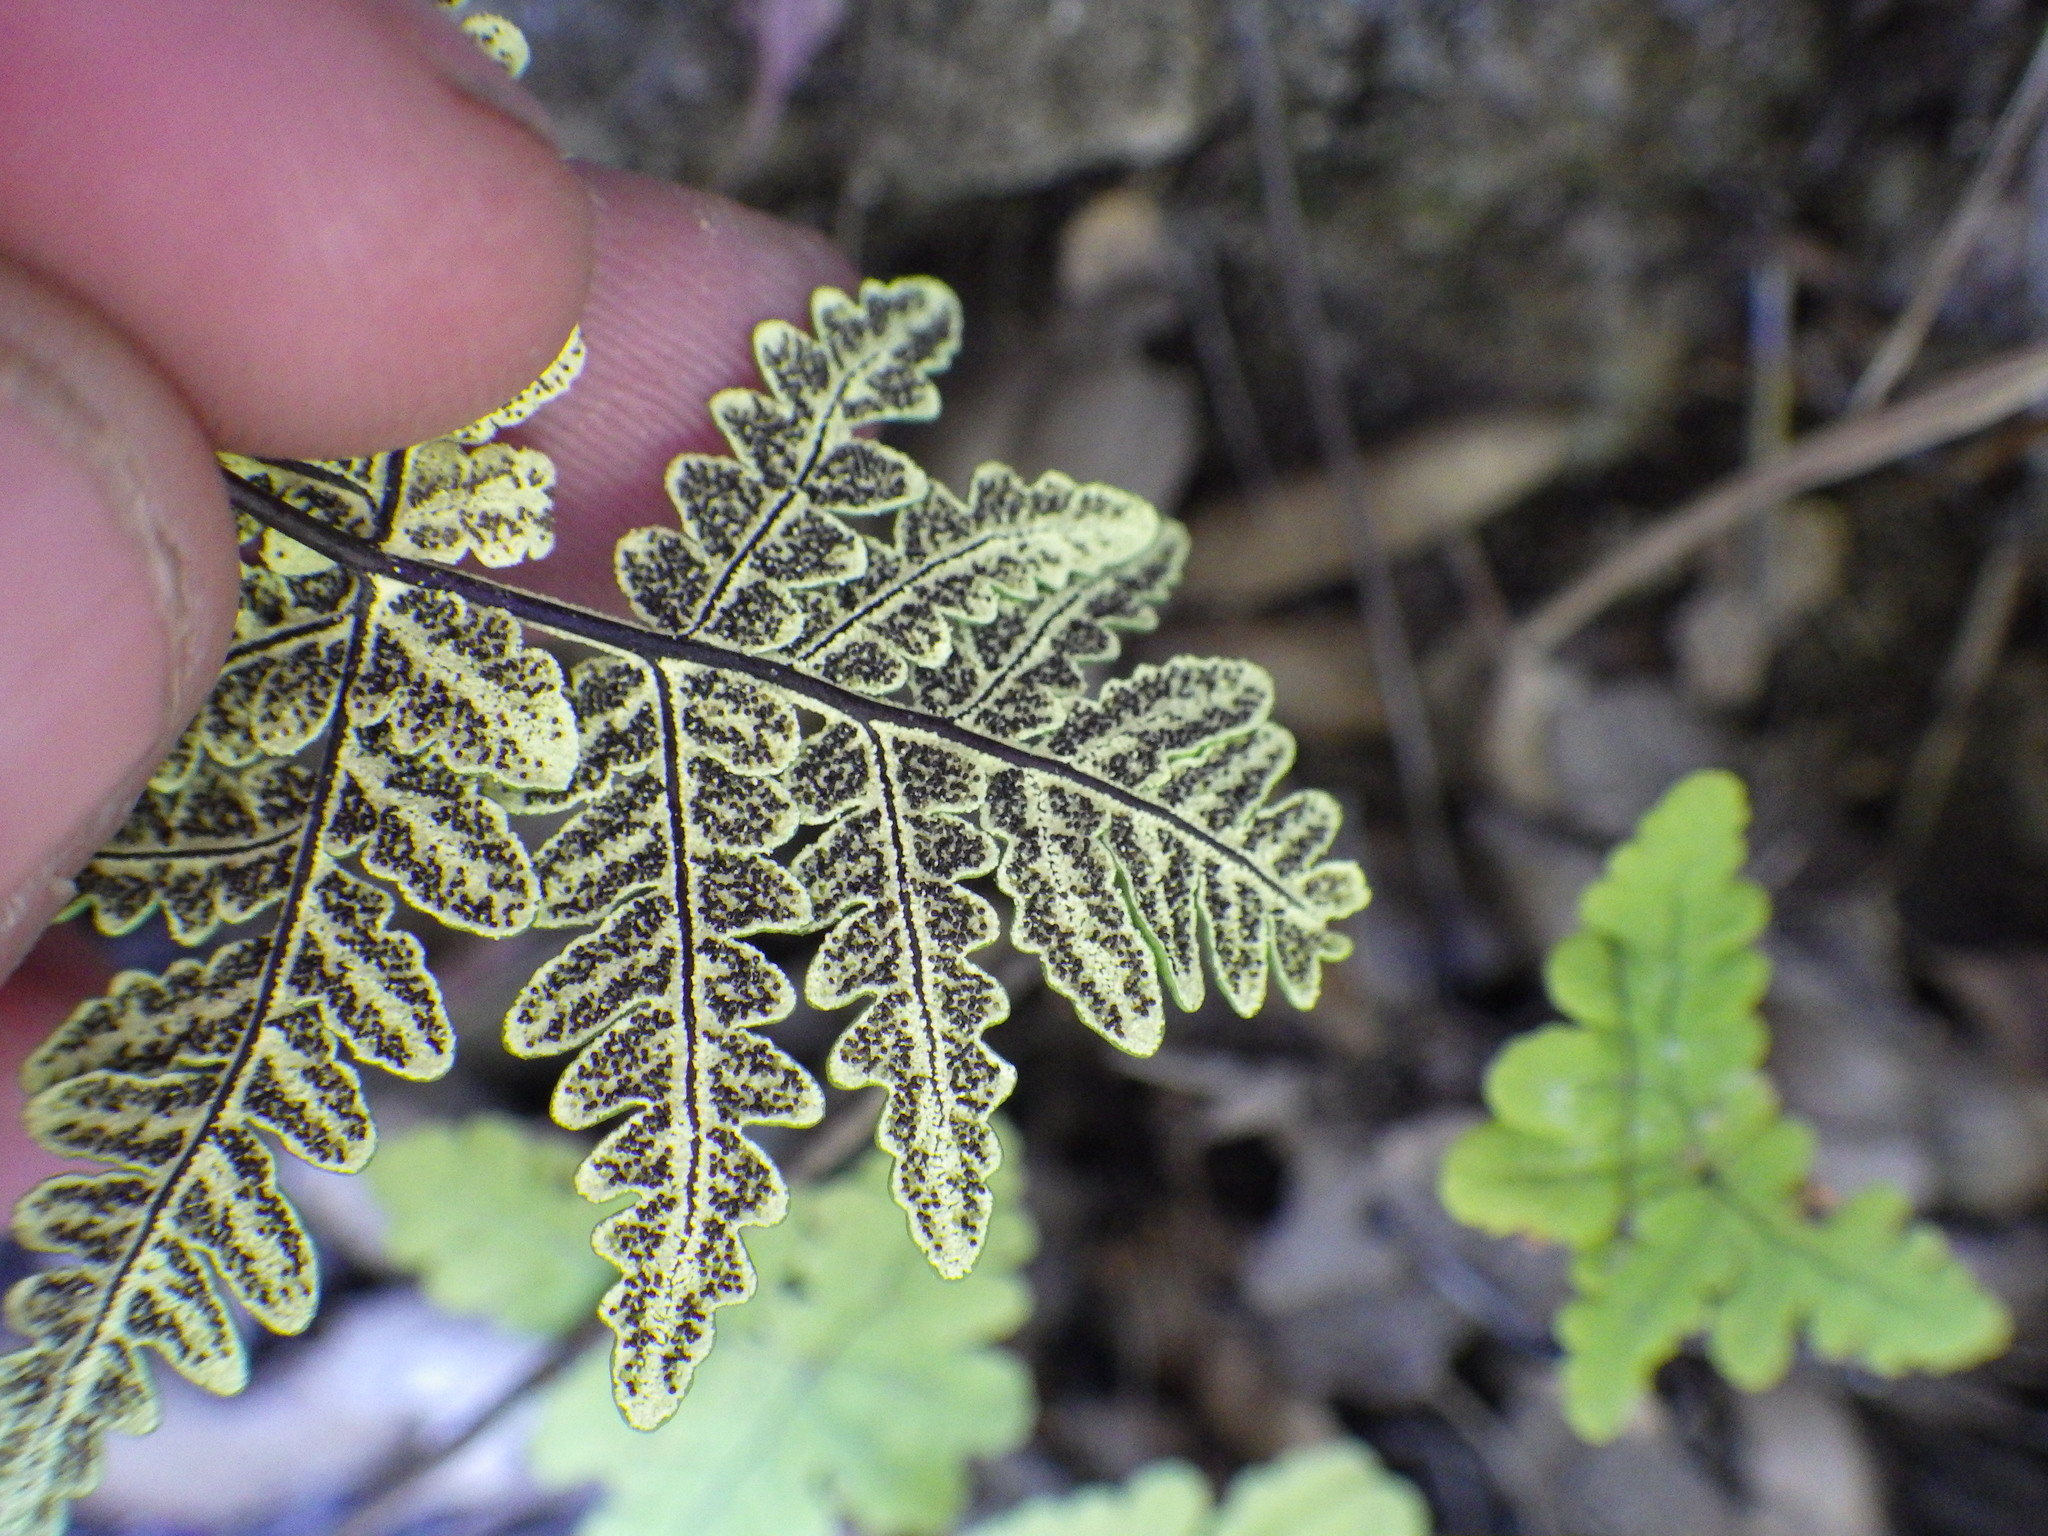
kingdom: Plantae
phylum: Tracheophyta
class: Polypodiopsida
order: Polypodiales
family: Pteridaceae
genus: Pentagramma
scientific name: Pentagramma triangularis
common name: Gold fern
